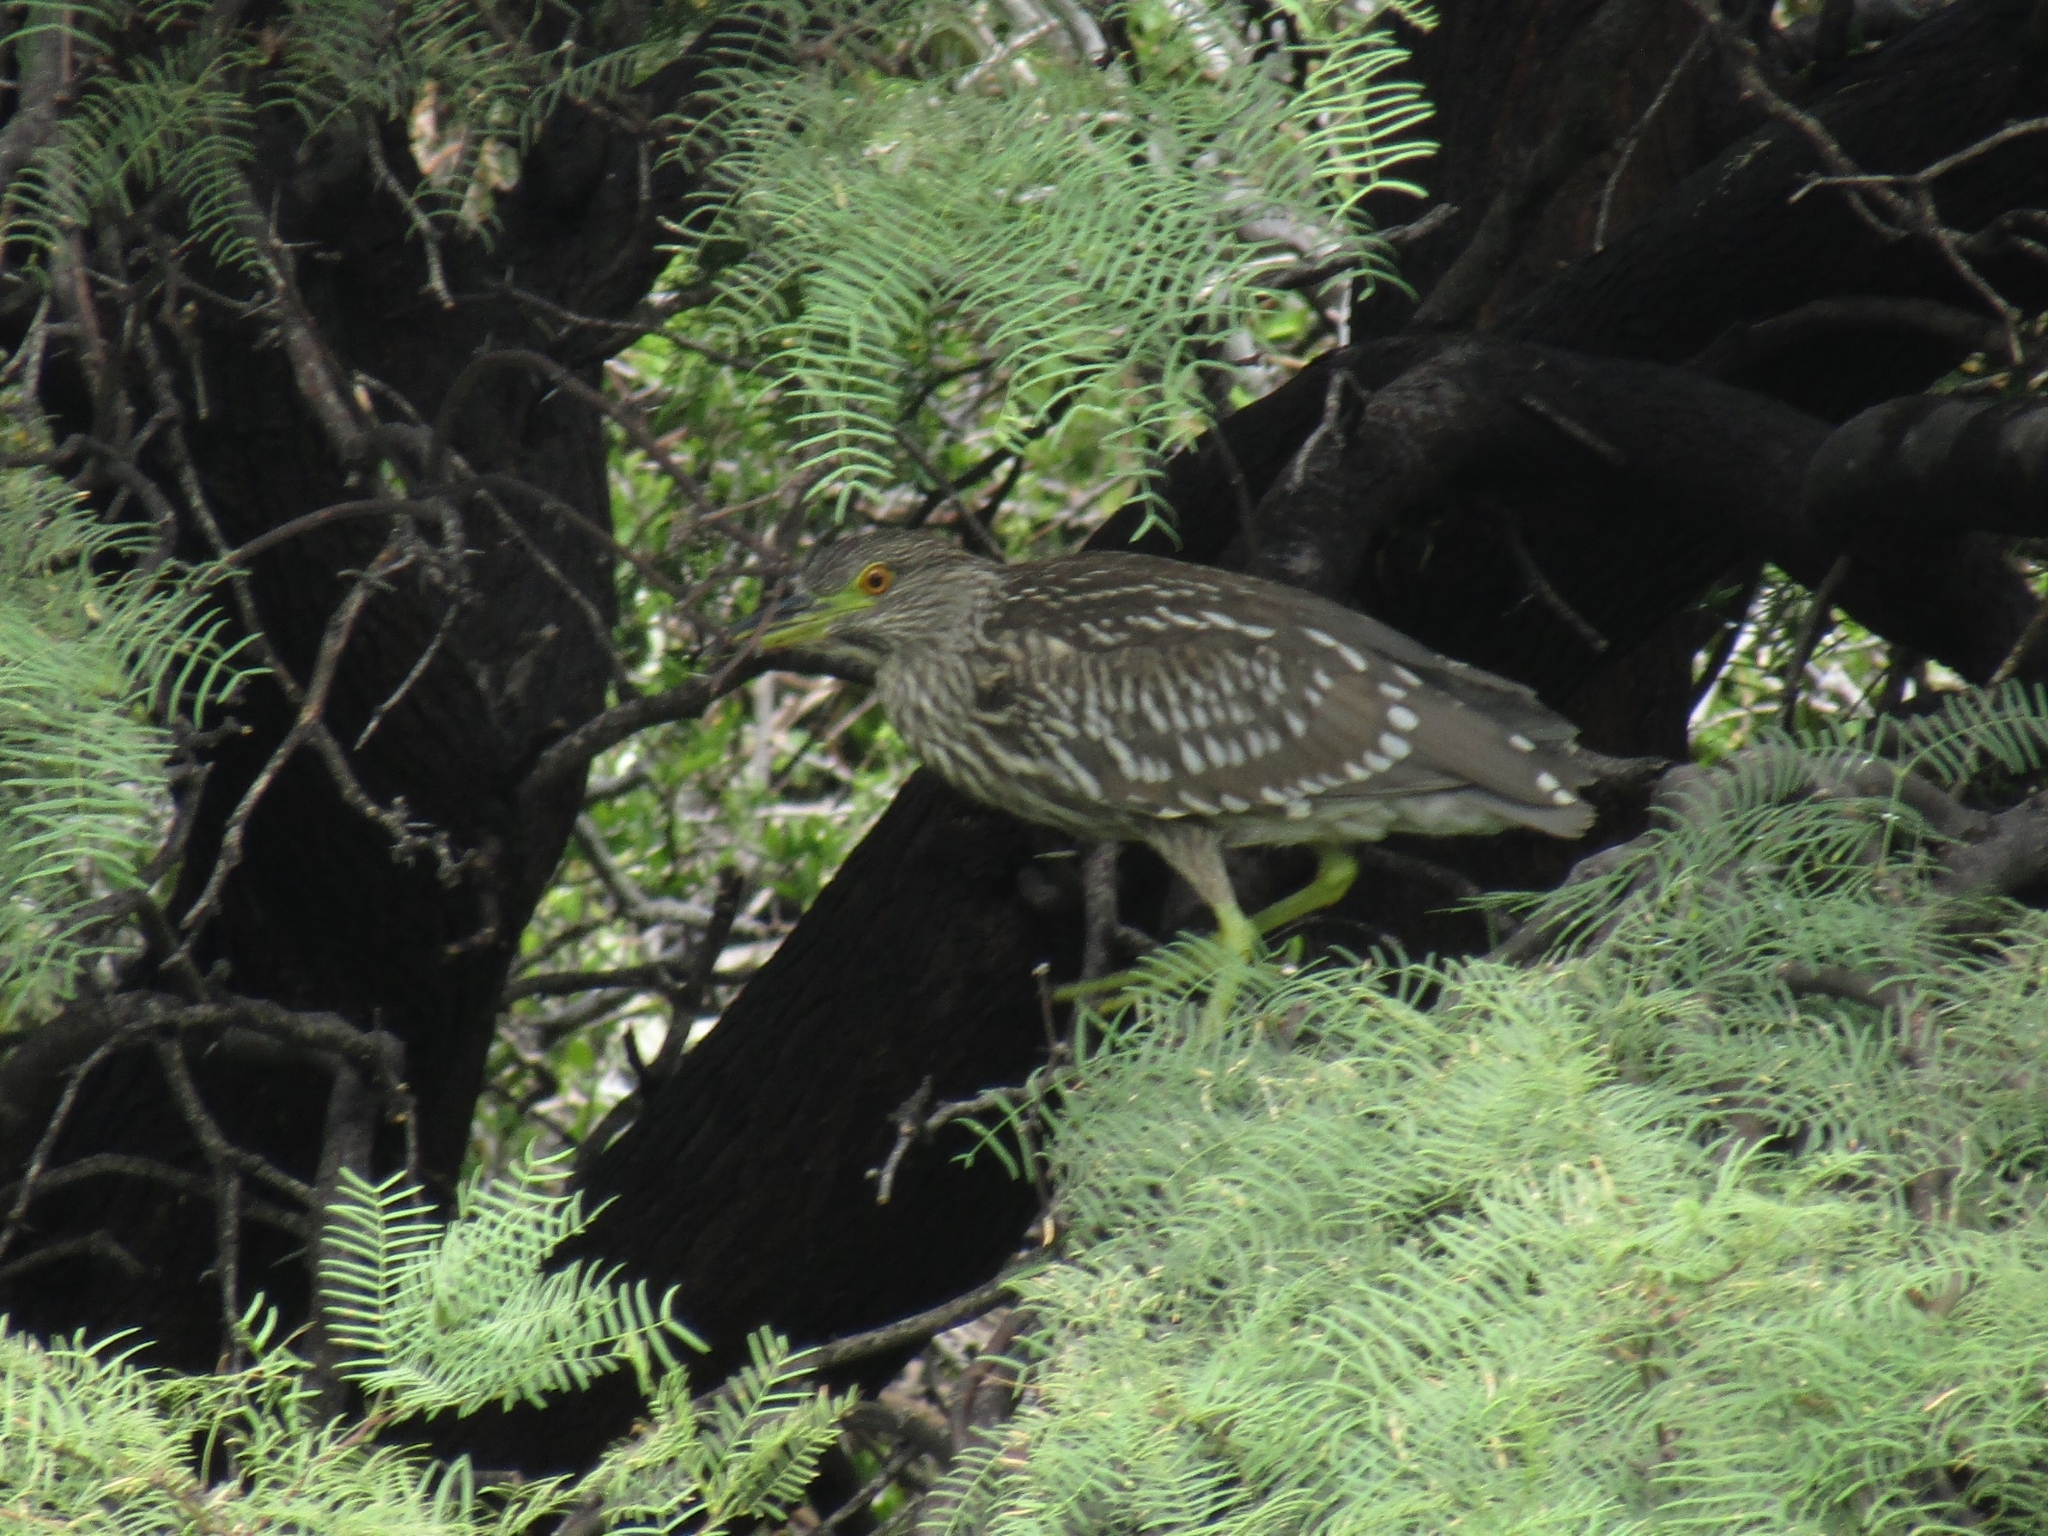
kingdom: Animalia
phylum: Chordata
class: Aves
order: Pelecaniformes
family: Ardeidae
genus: Nycticorax
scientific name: Nycticorax nycticorax
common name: Black-crowned night heron
